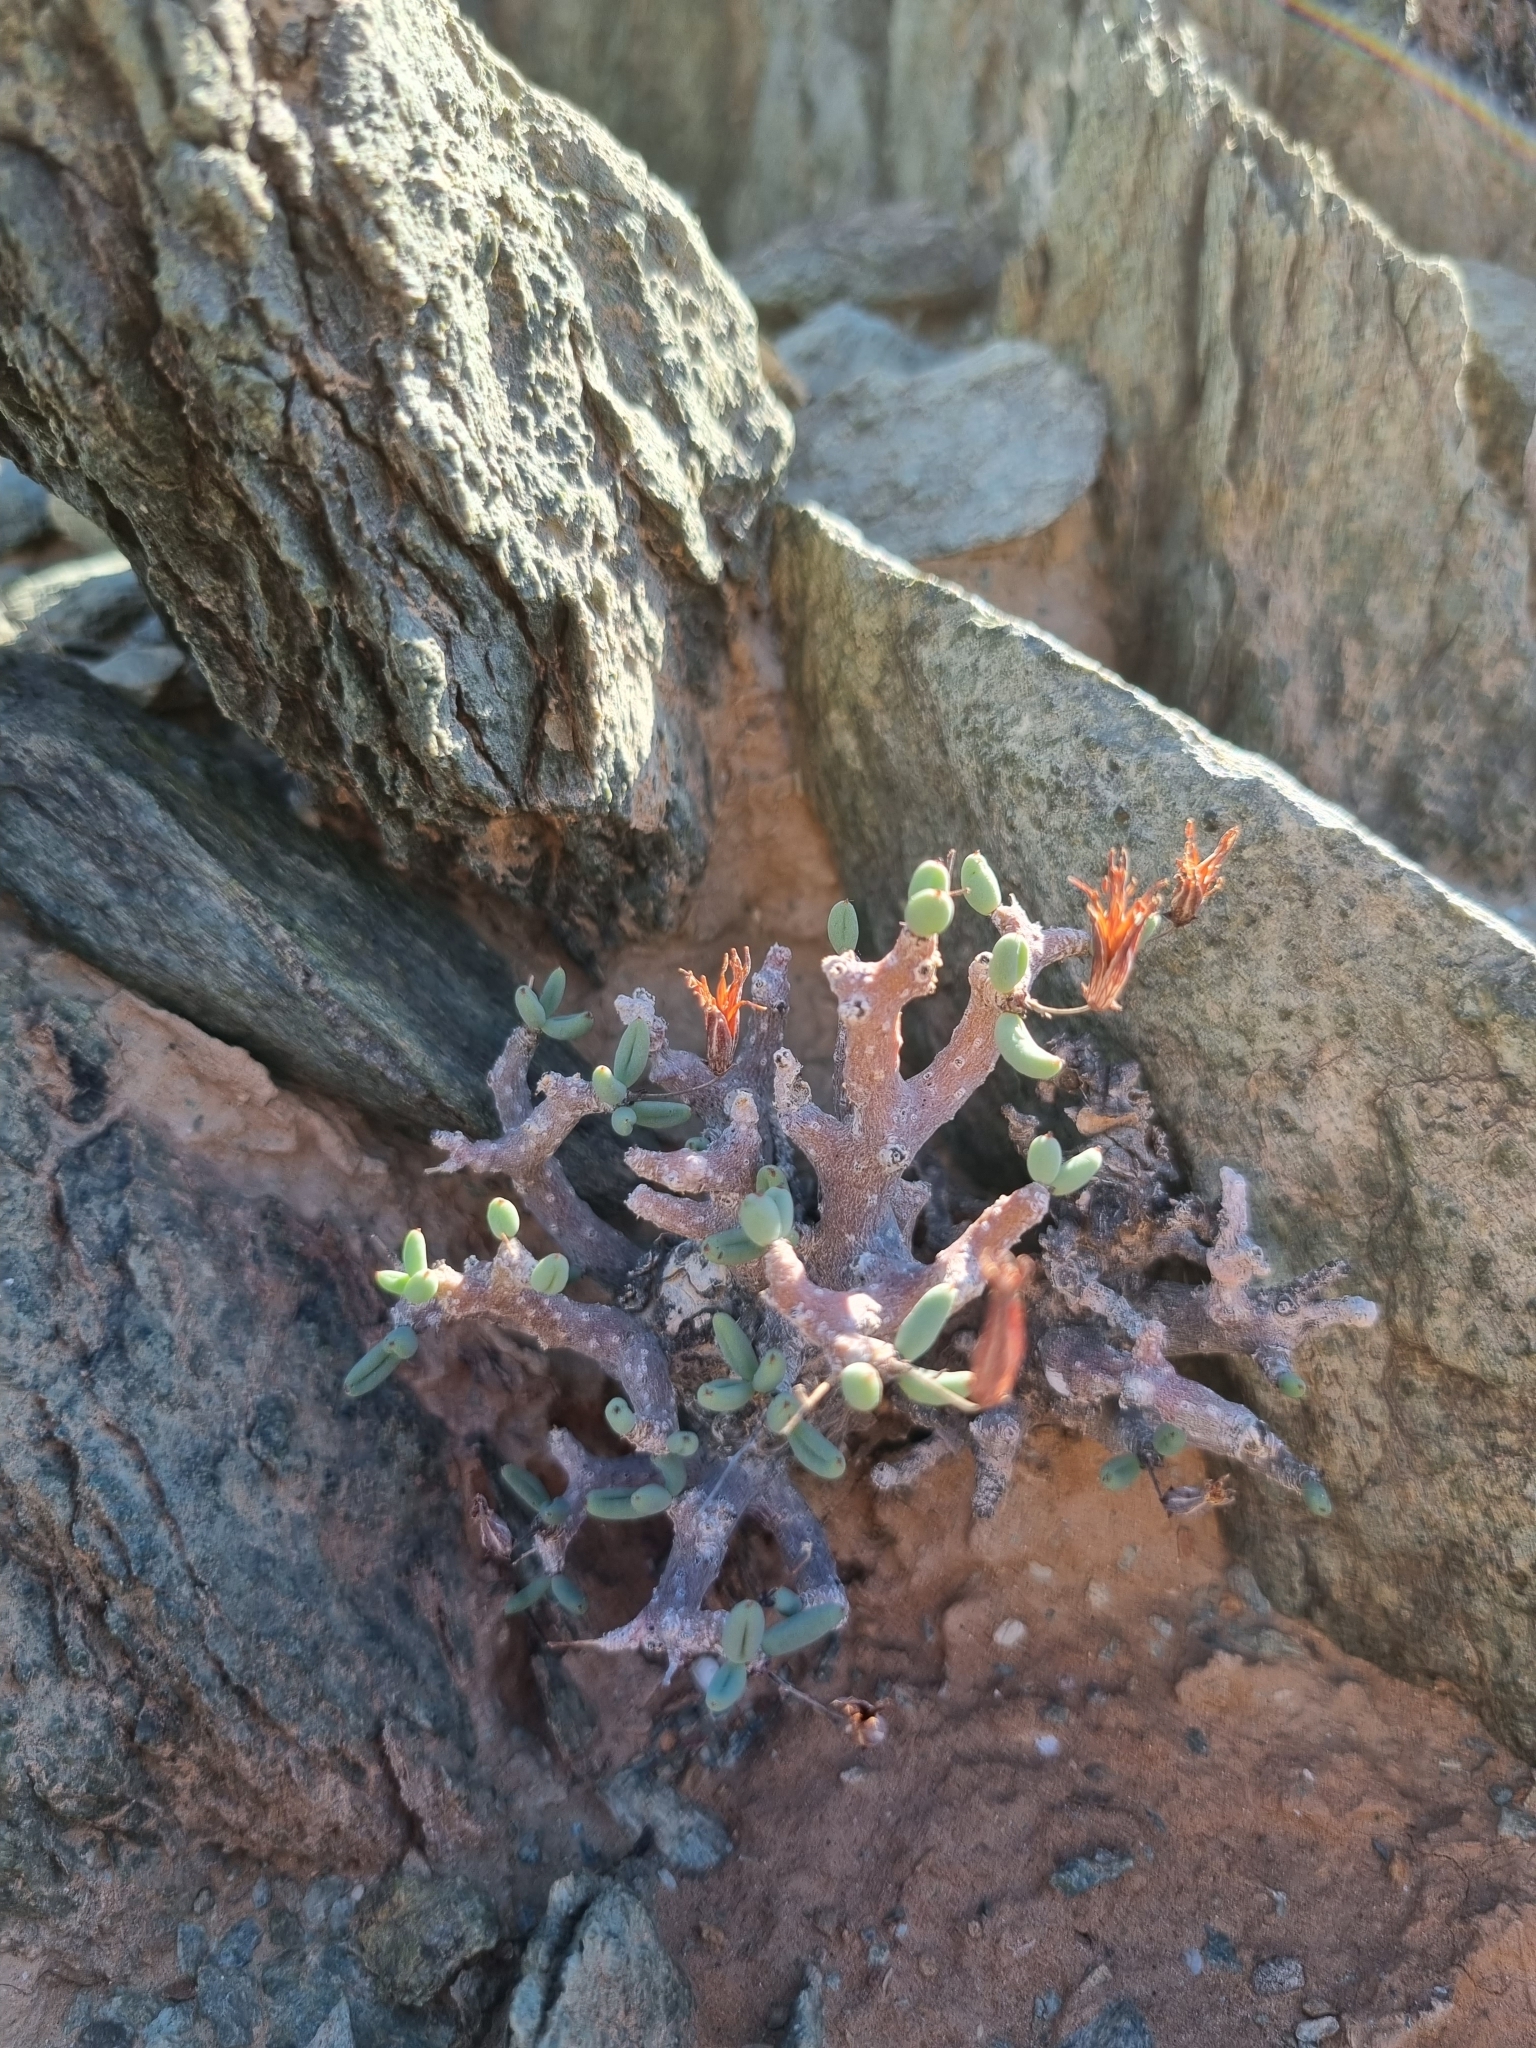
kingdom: Plantae
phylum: Tracheophyta
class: Magnoliopsida
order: Saxifragales
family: Crassulaceae
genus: Tylecodon
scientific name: Tylecodon buchholzianus
